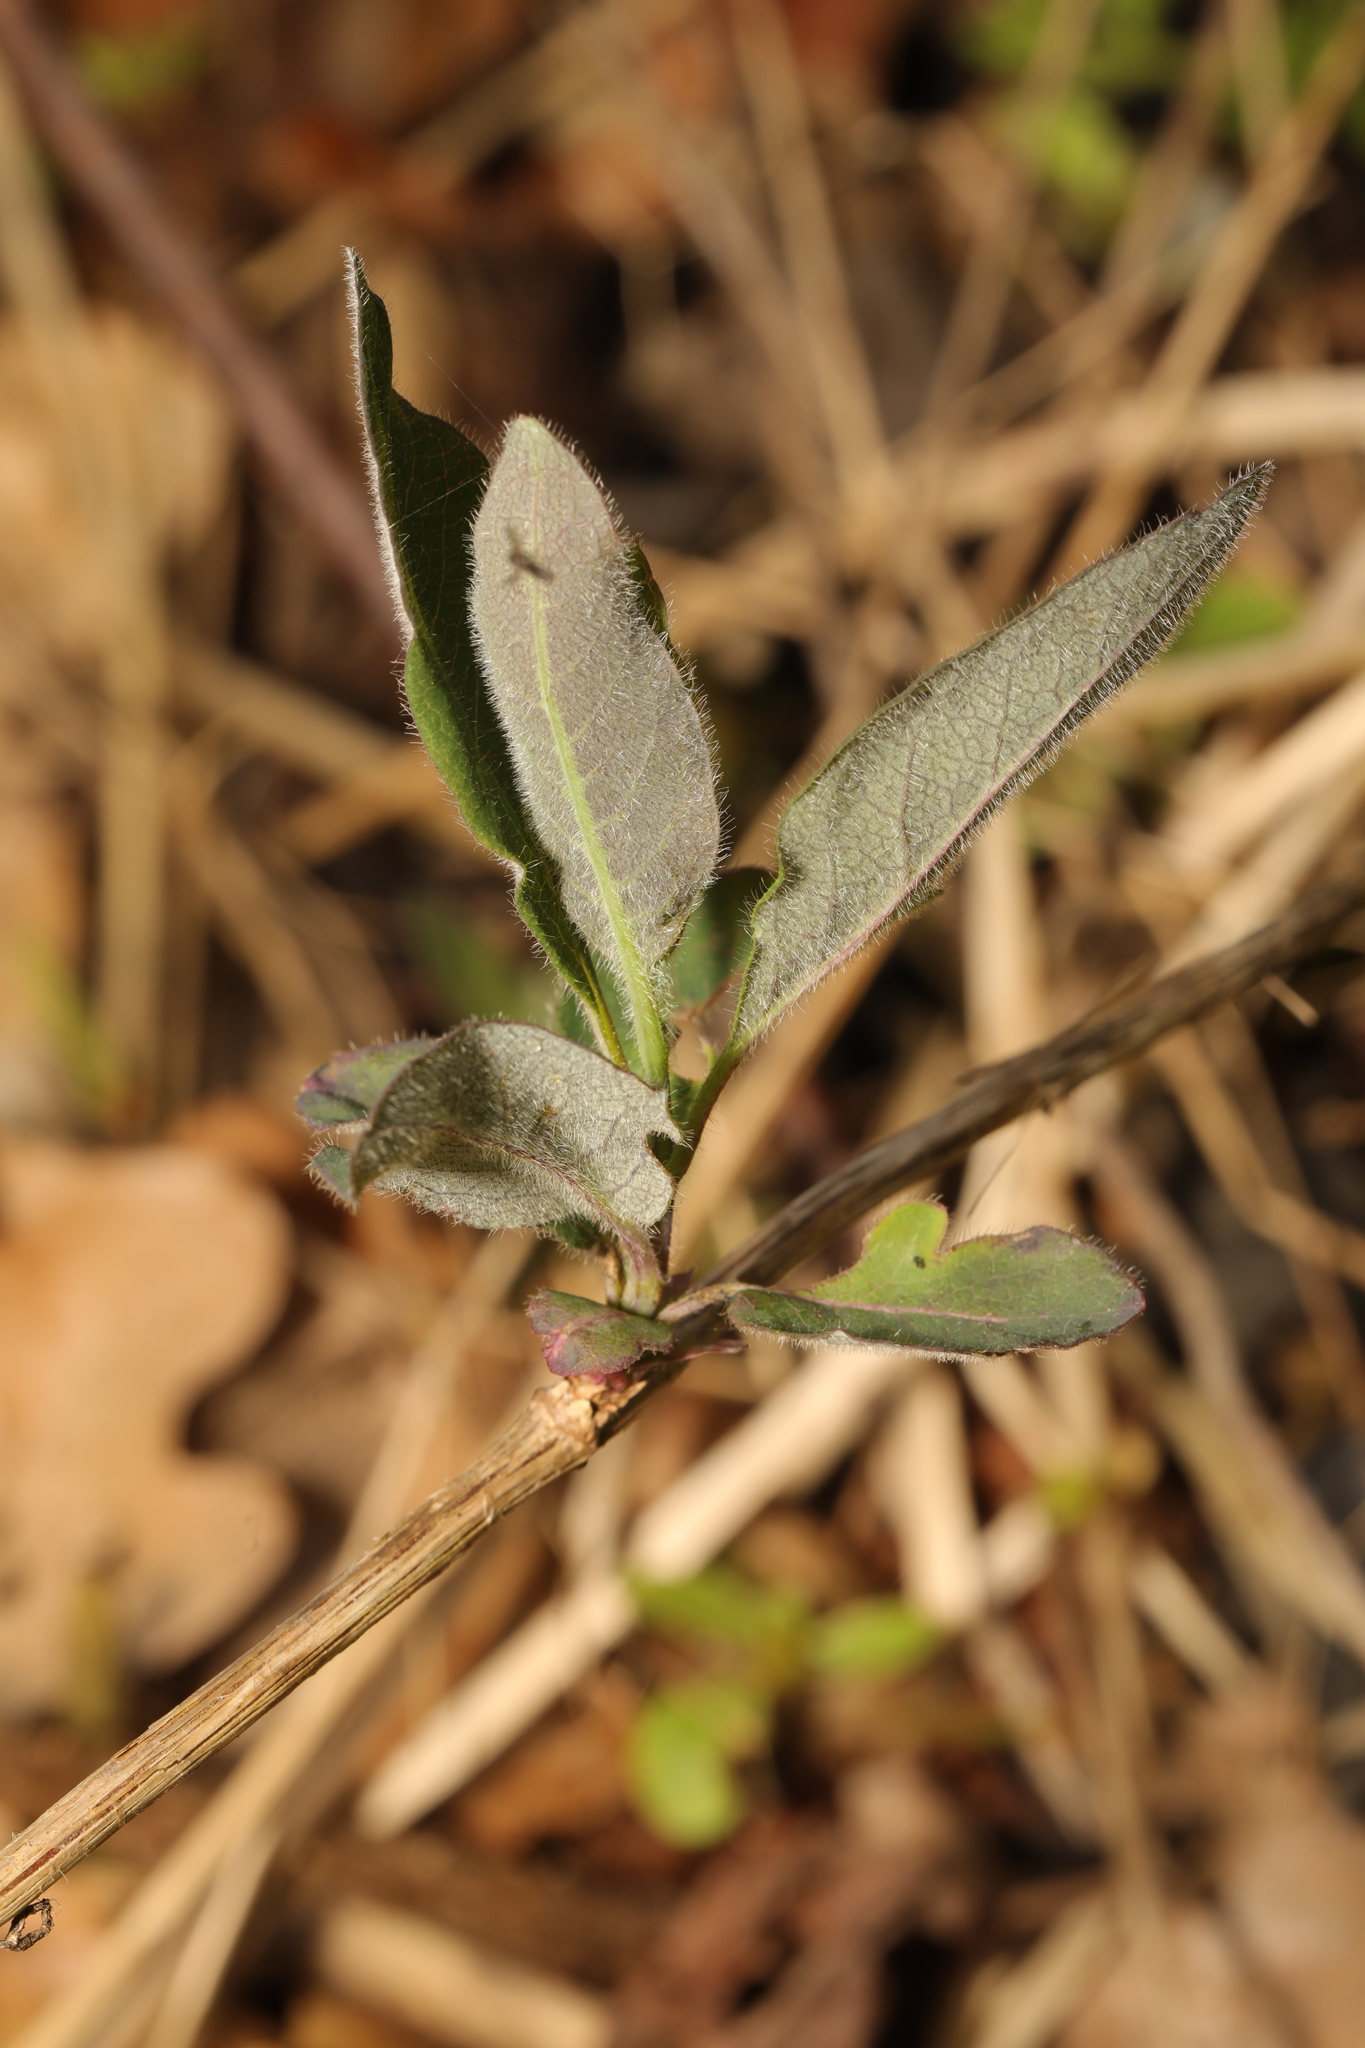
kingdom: Plantae
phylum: Tracheophyta
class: Magnoliopsida
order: Dipsacales
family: Caprifoliaceae
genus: Lonicera
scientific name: Lonicera periclymenum
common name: European honeysuckle
